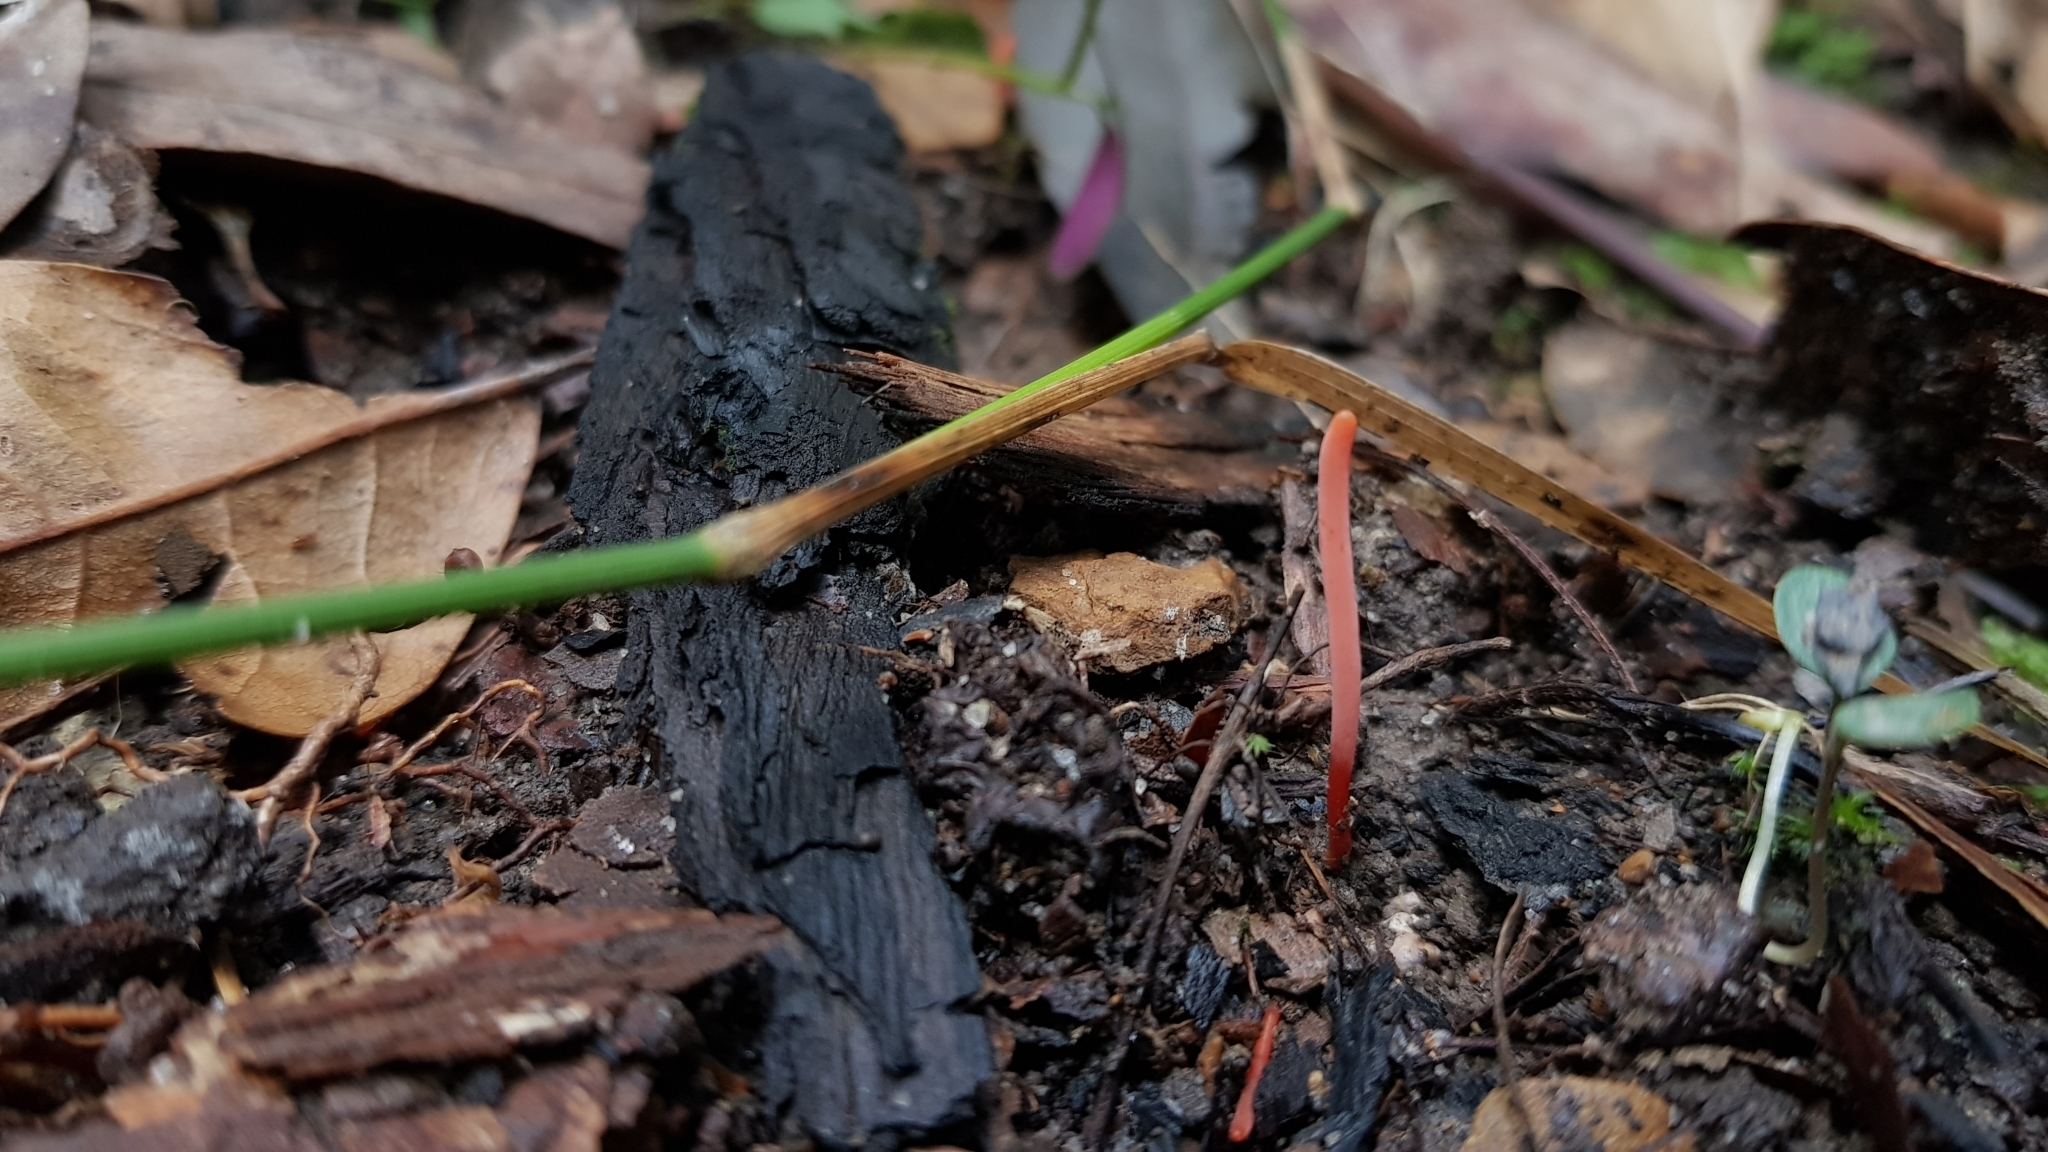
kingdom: Fungi
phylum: Basidiomycota
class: Agaricomycetes
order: Agaricales
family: Clavariaceae
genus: Clavulinopsis
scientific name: Clavulinopsis corallinorosacea
